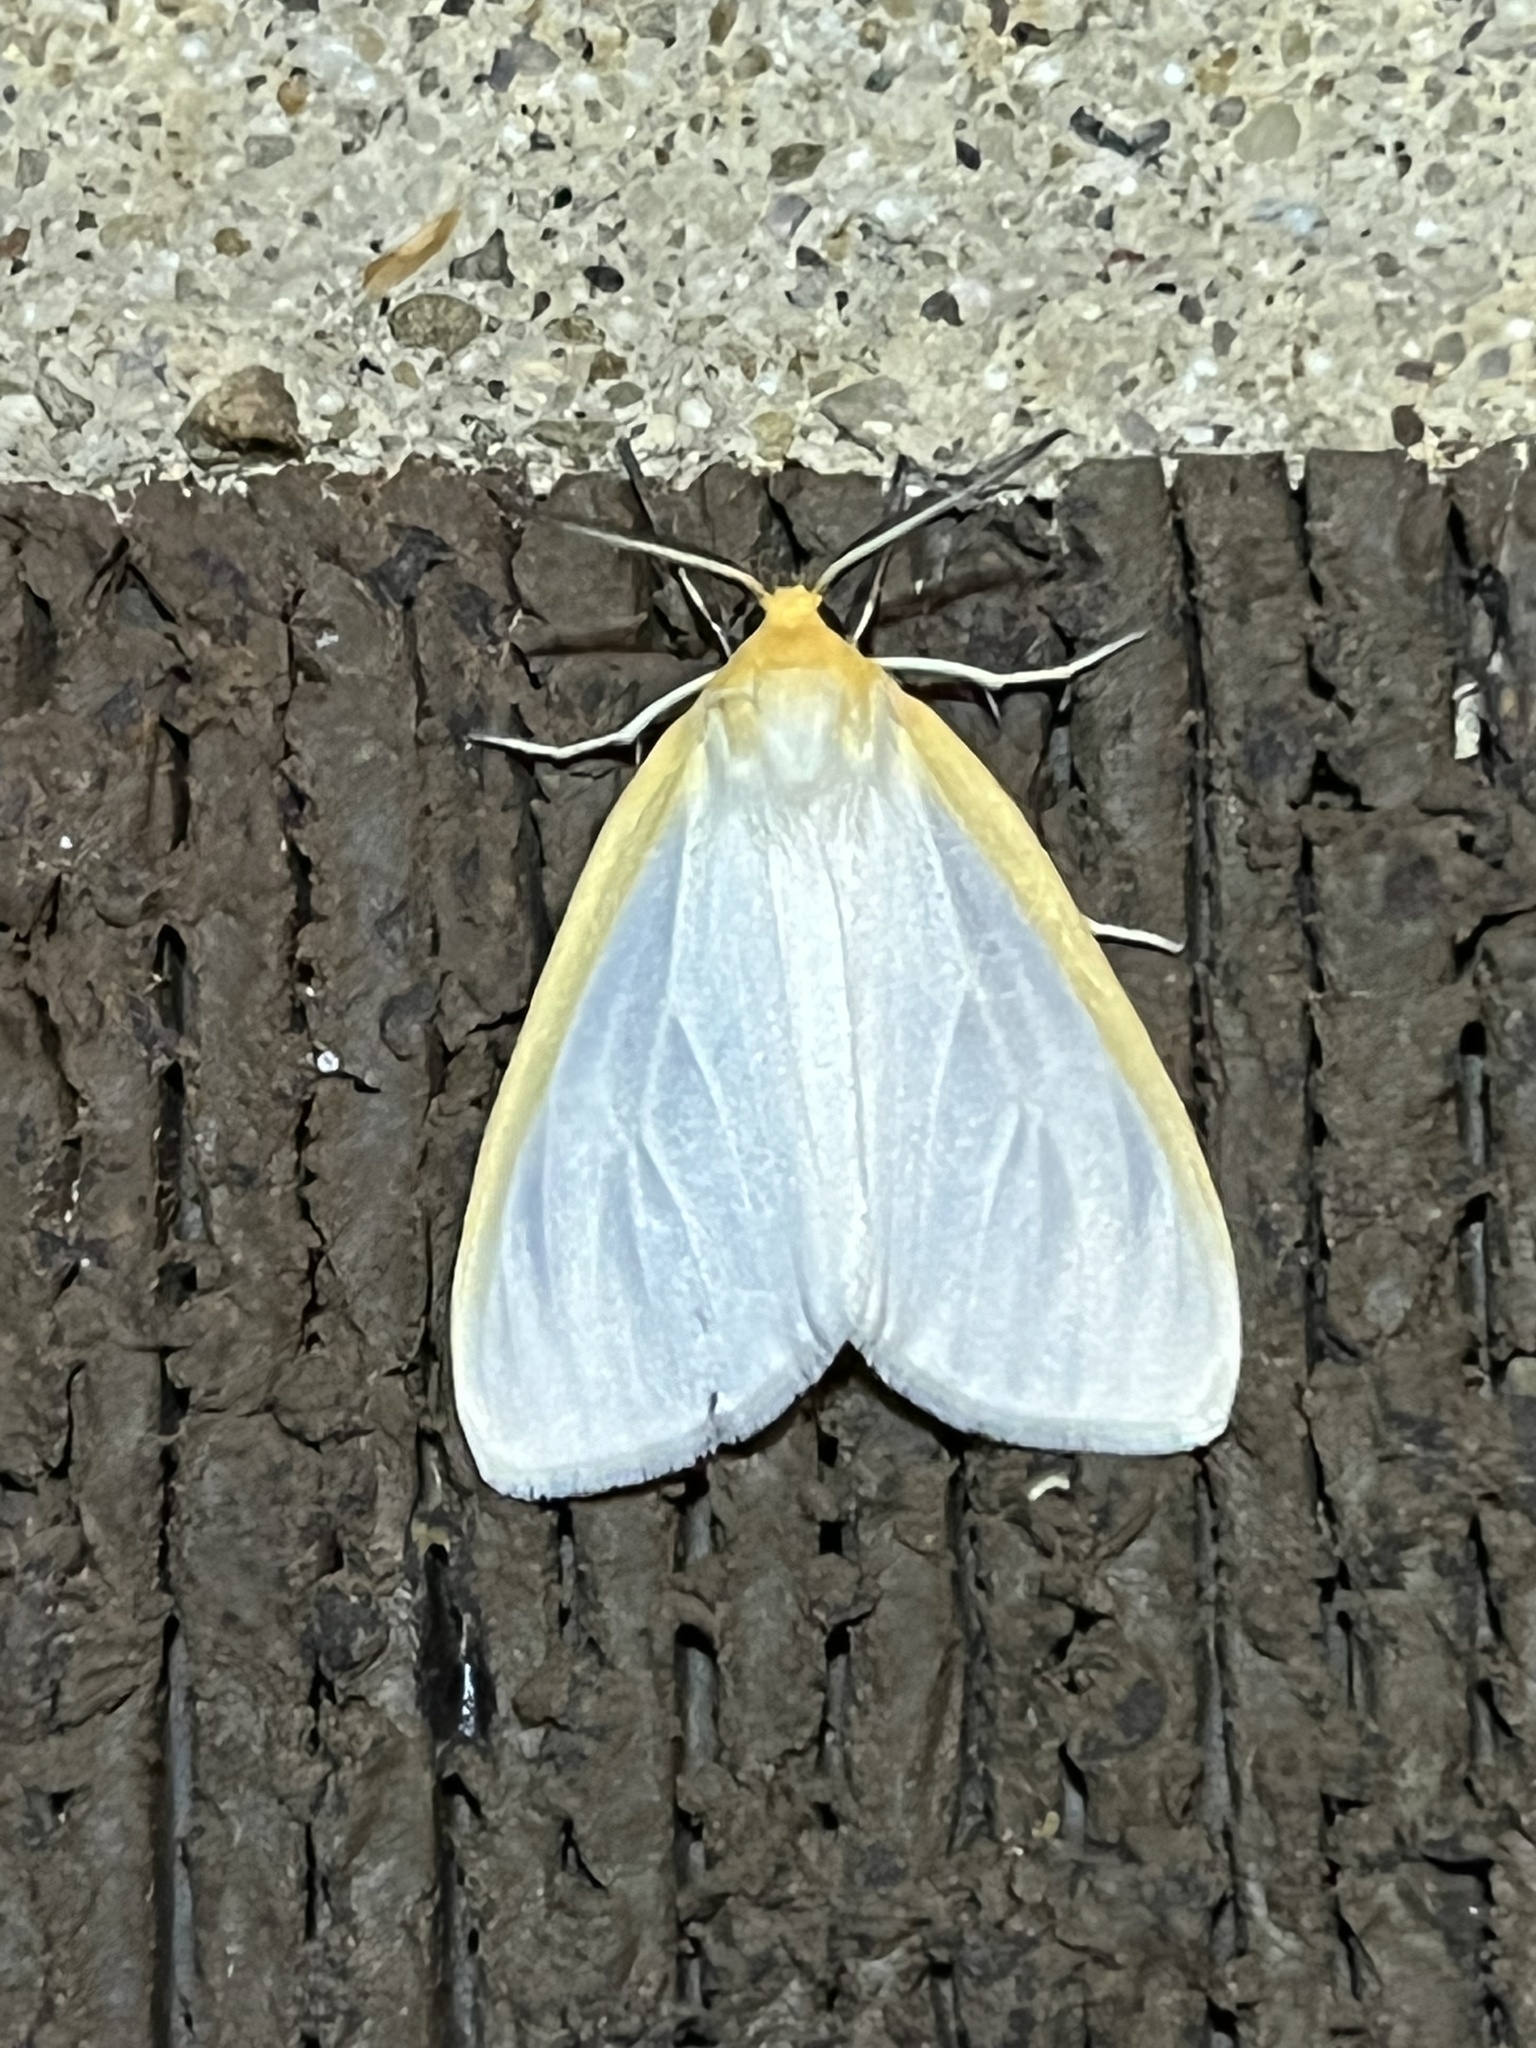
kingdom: Animalia
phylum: Arthropoda
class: Insecta
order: Lepidoptera
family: Erebidae
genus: Cycnia
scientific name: Cycnia tenera
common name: Delicate cycnia moth
